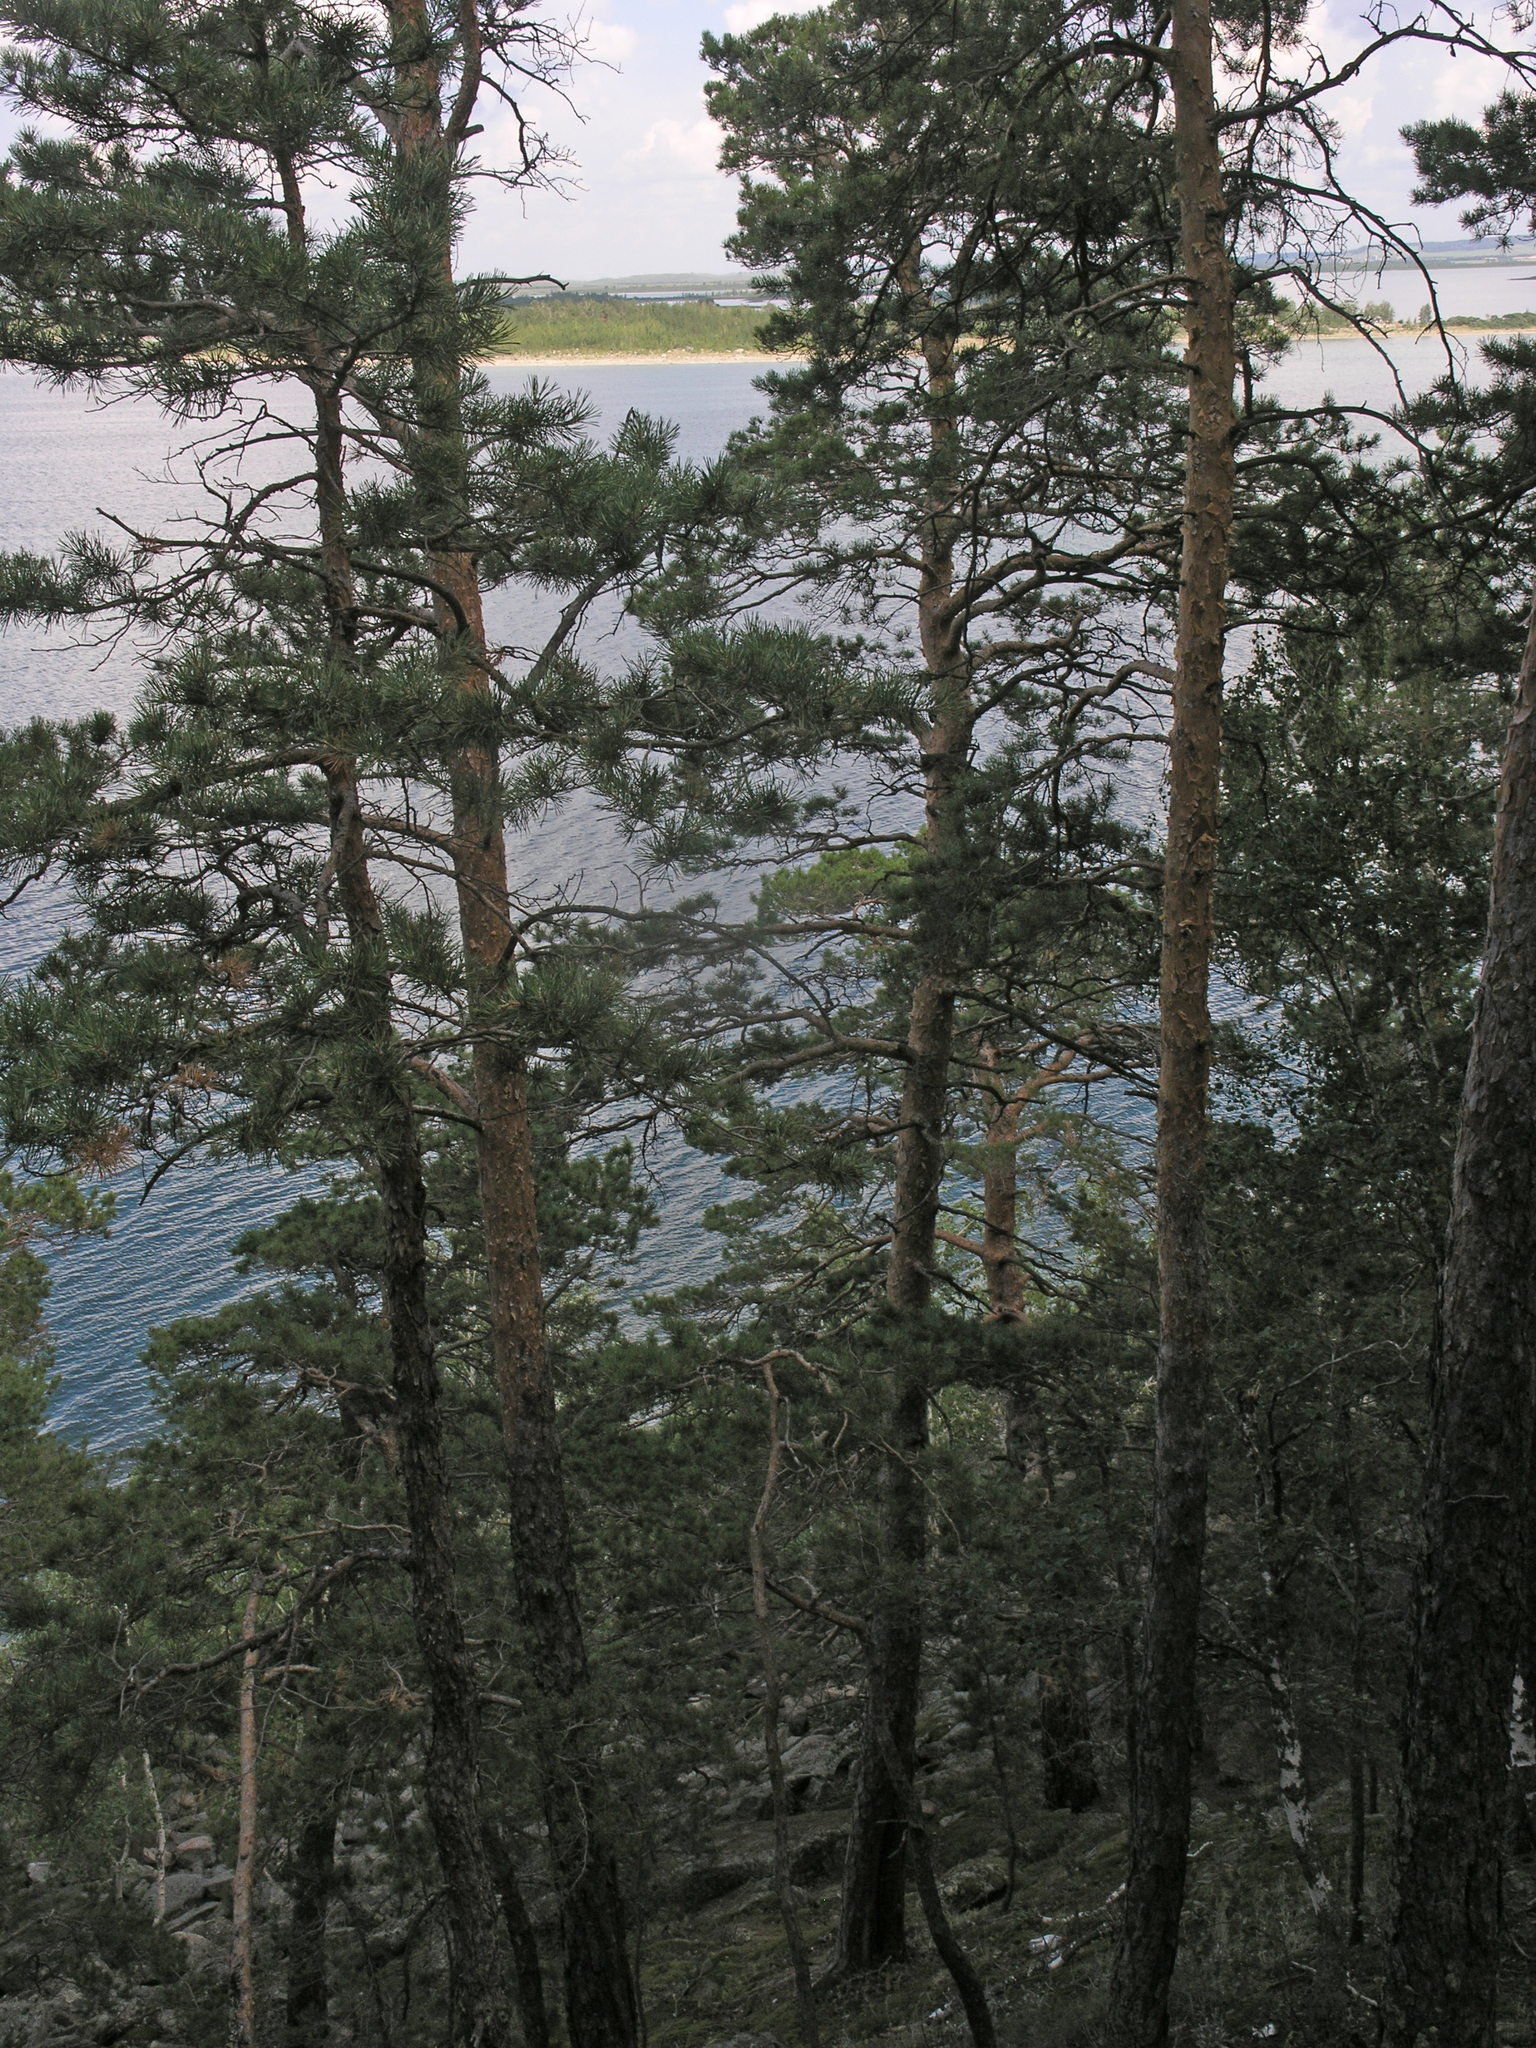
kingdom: Plantae
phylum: Tracheophyta
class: Pinopsida
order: Pinales
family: Pinaceae
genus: Pinus
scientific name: Pinus sylvestris
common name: Scots pine
